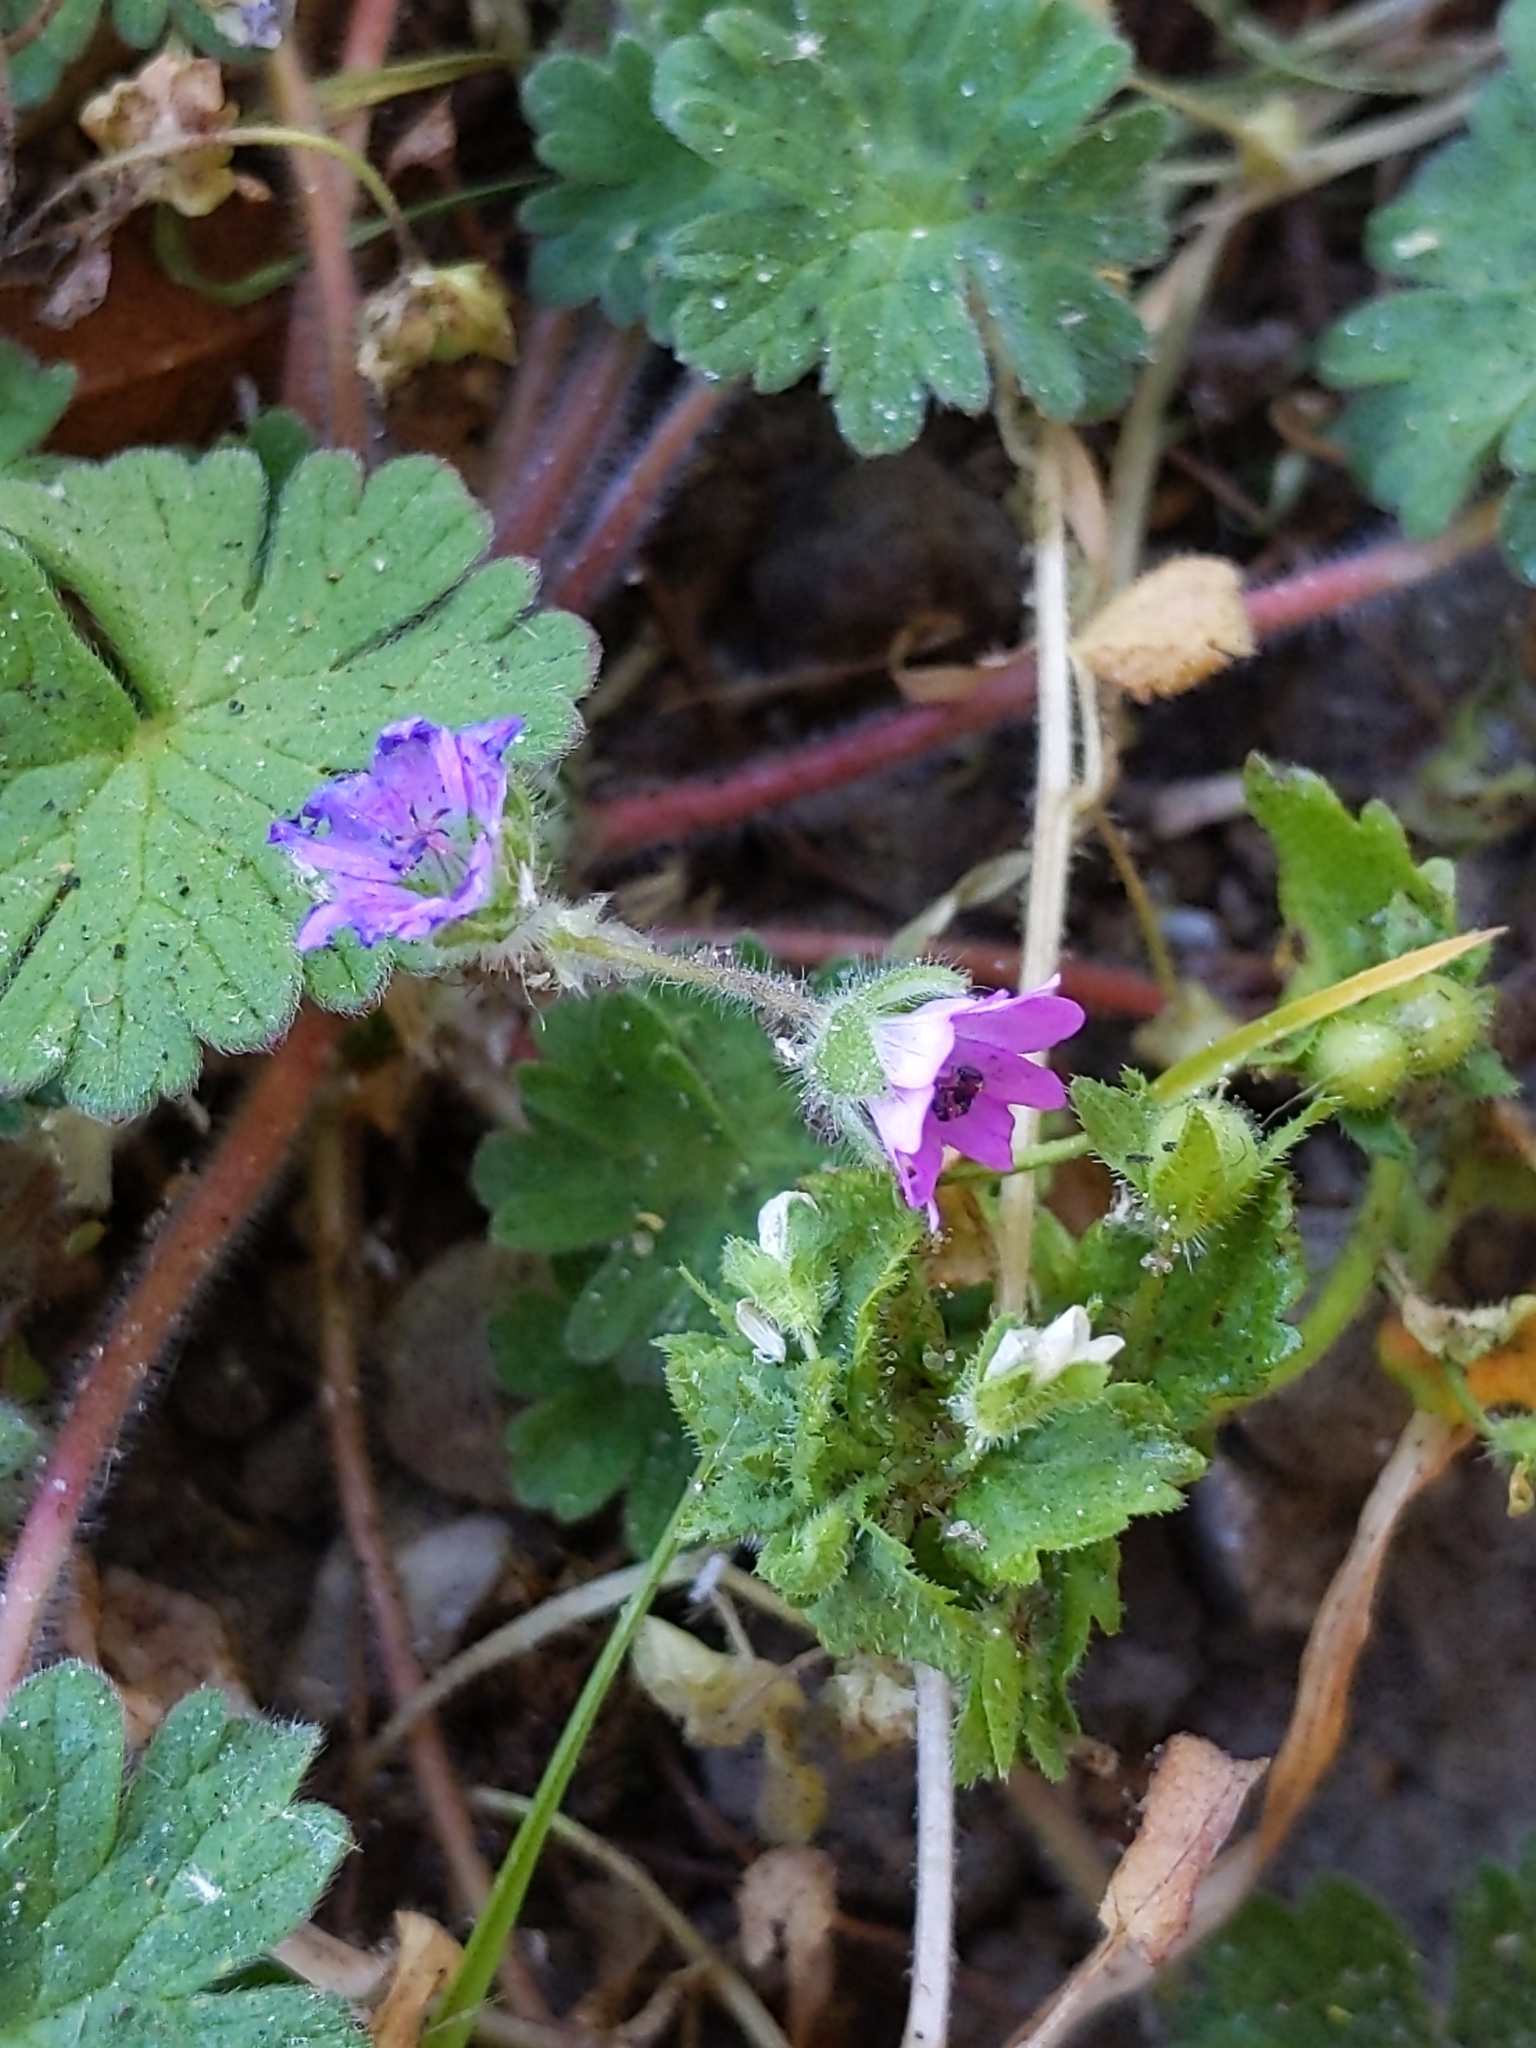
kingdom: Plantae
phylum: Tracheophyta
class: Magnoliopsida
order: Geraniales
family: Geraniaceae
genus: Geranium
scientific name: Geranium molle
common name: Dove's-foot crane's-bill
